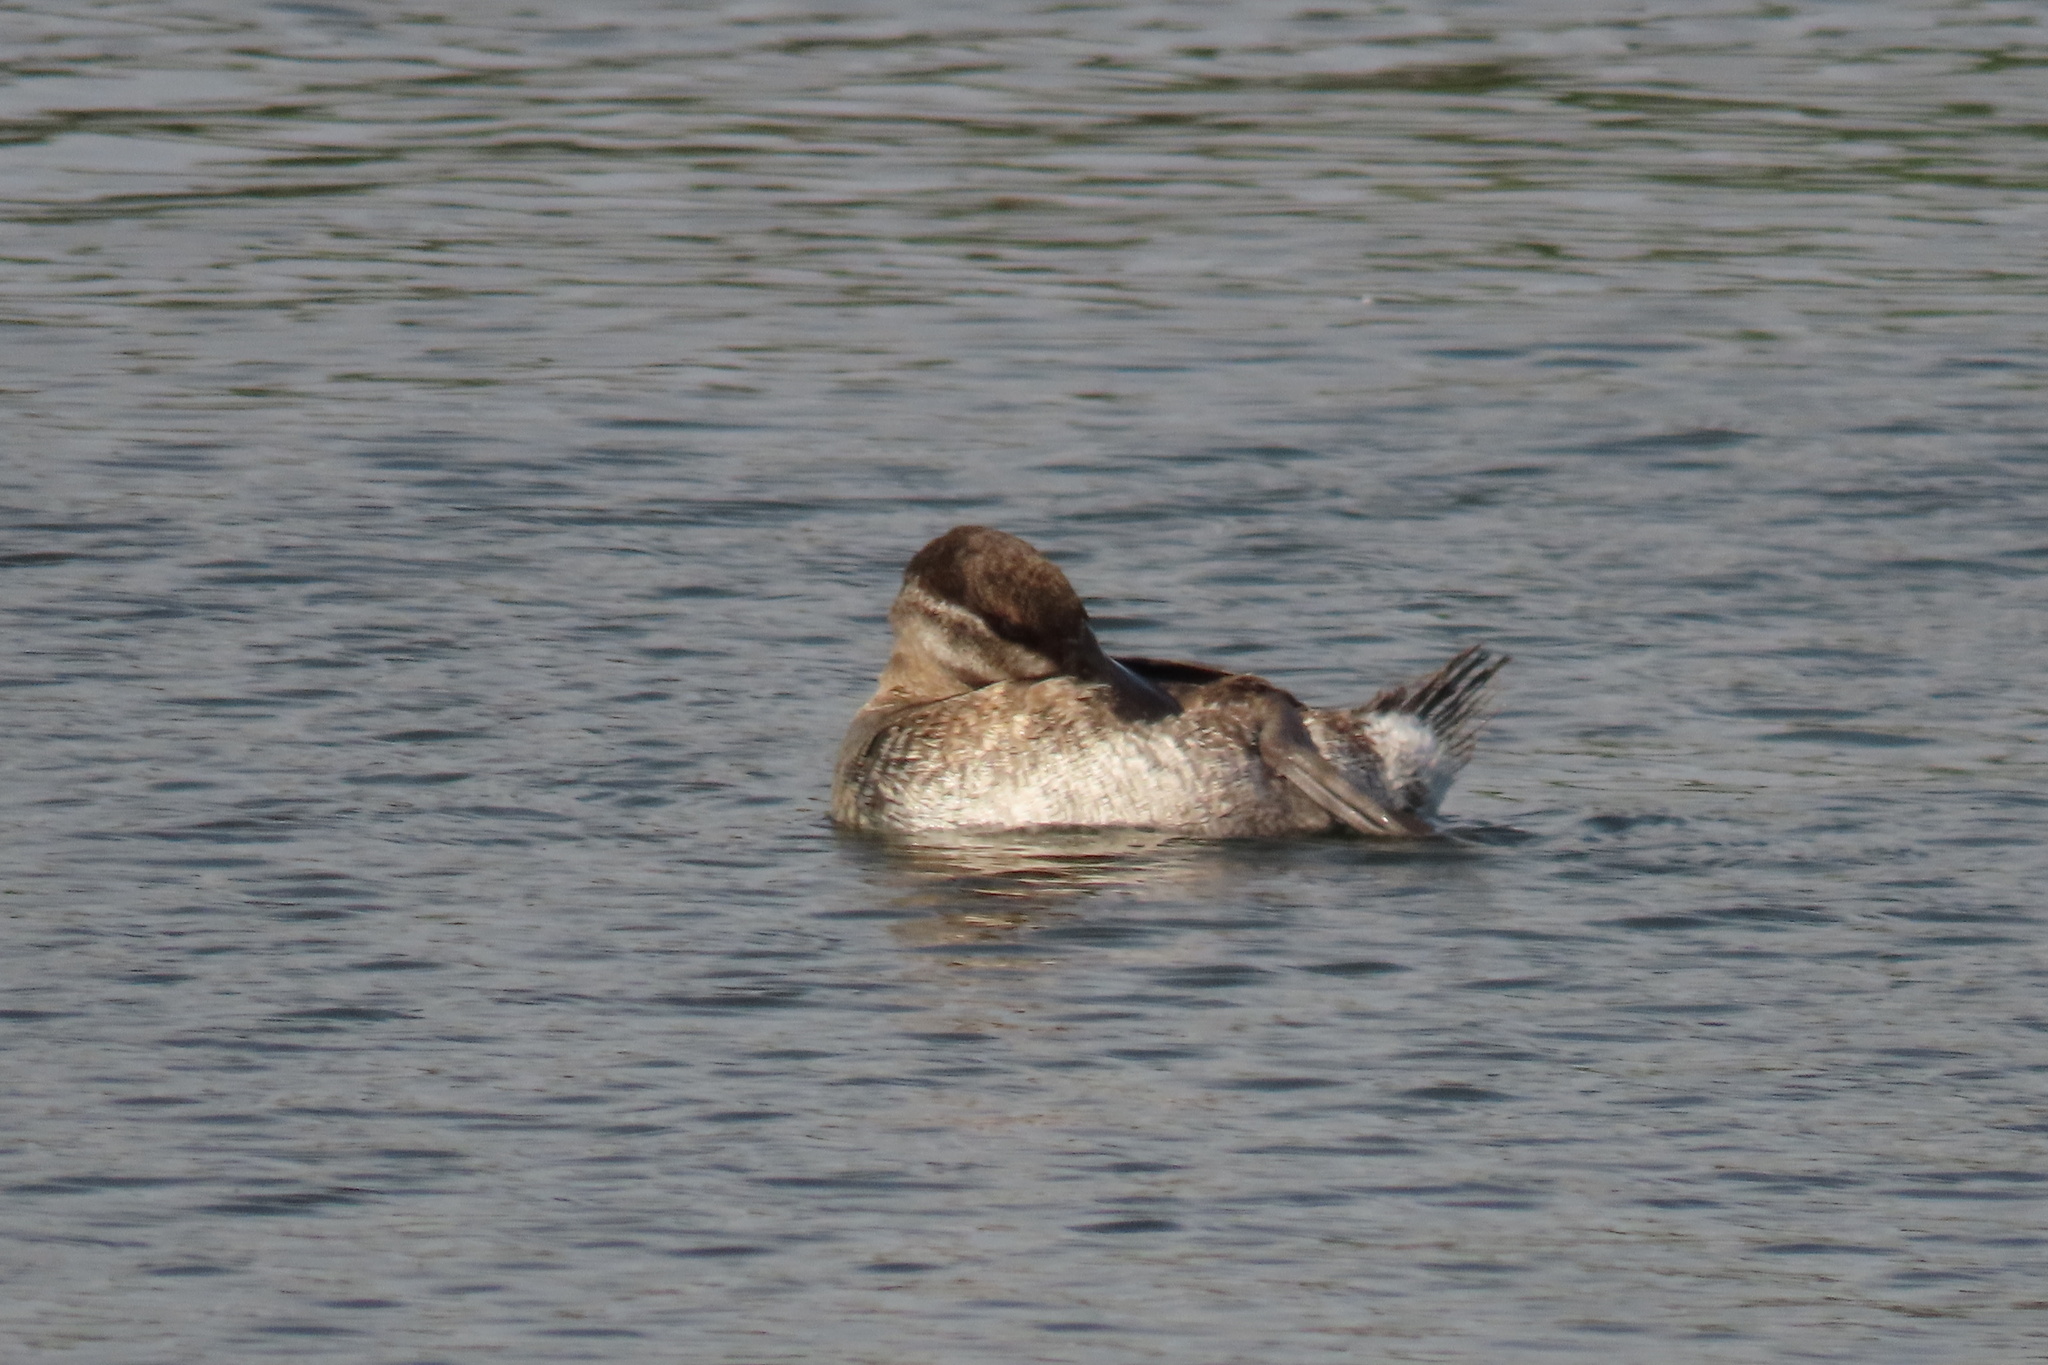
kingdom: Animalia
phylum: Chordata
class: Aves
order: Anseriformes
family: Anatidae
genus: Oxyura
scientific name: Oxyura jamaicensis
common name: Ruddy duck
